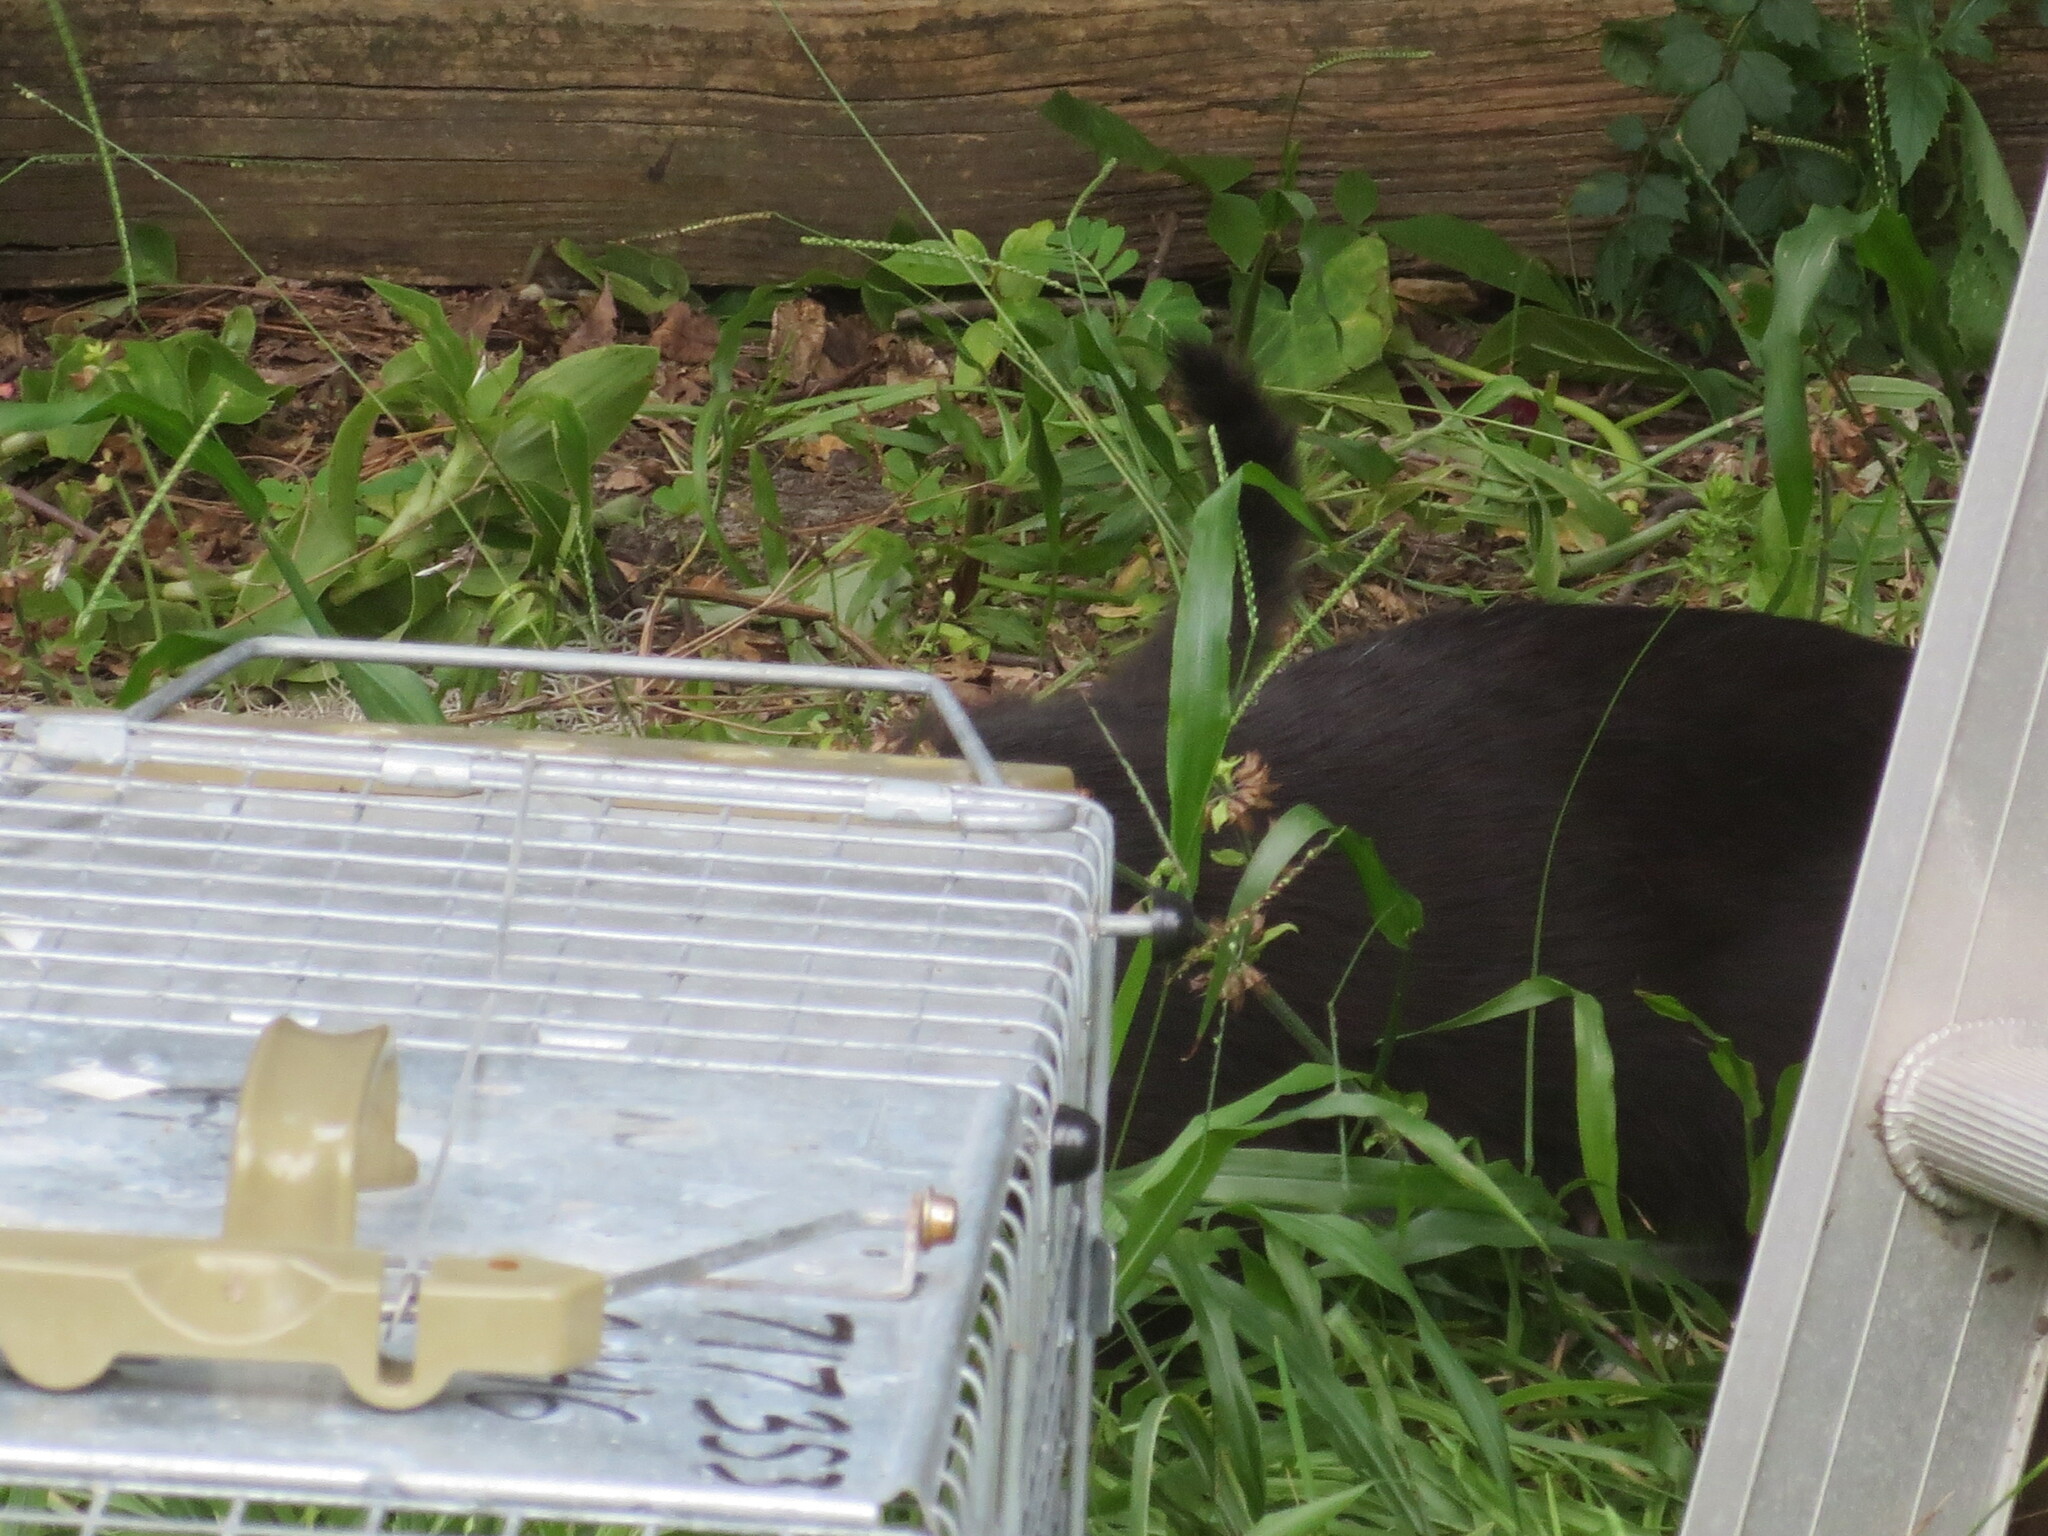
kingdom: Animalia
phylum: Chordata
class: Mammalia
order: Carnivora
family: Felidae
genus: Felis
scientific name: Felis catus
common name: Domestic cat
